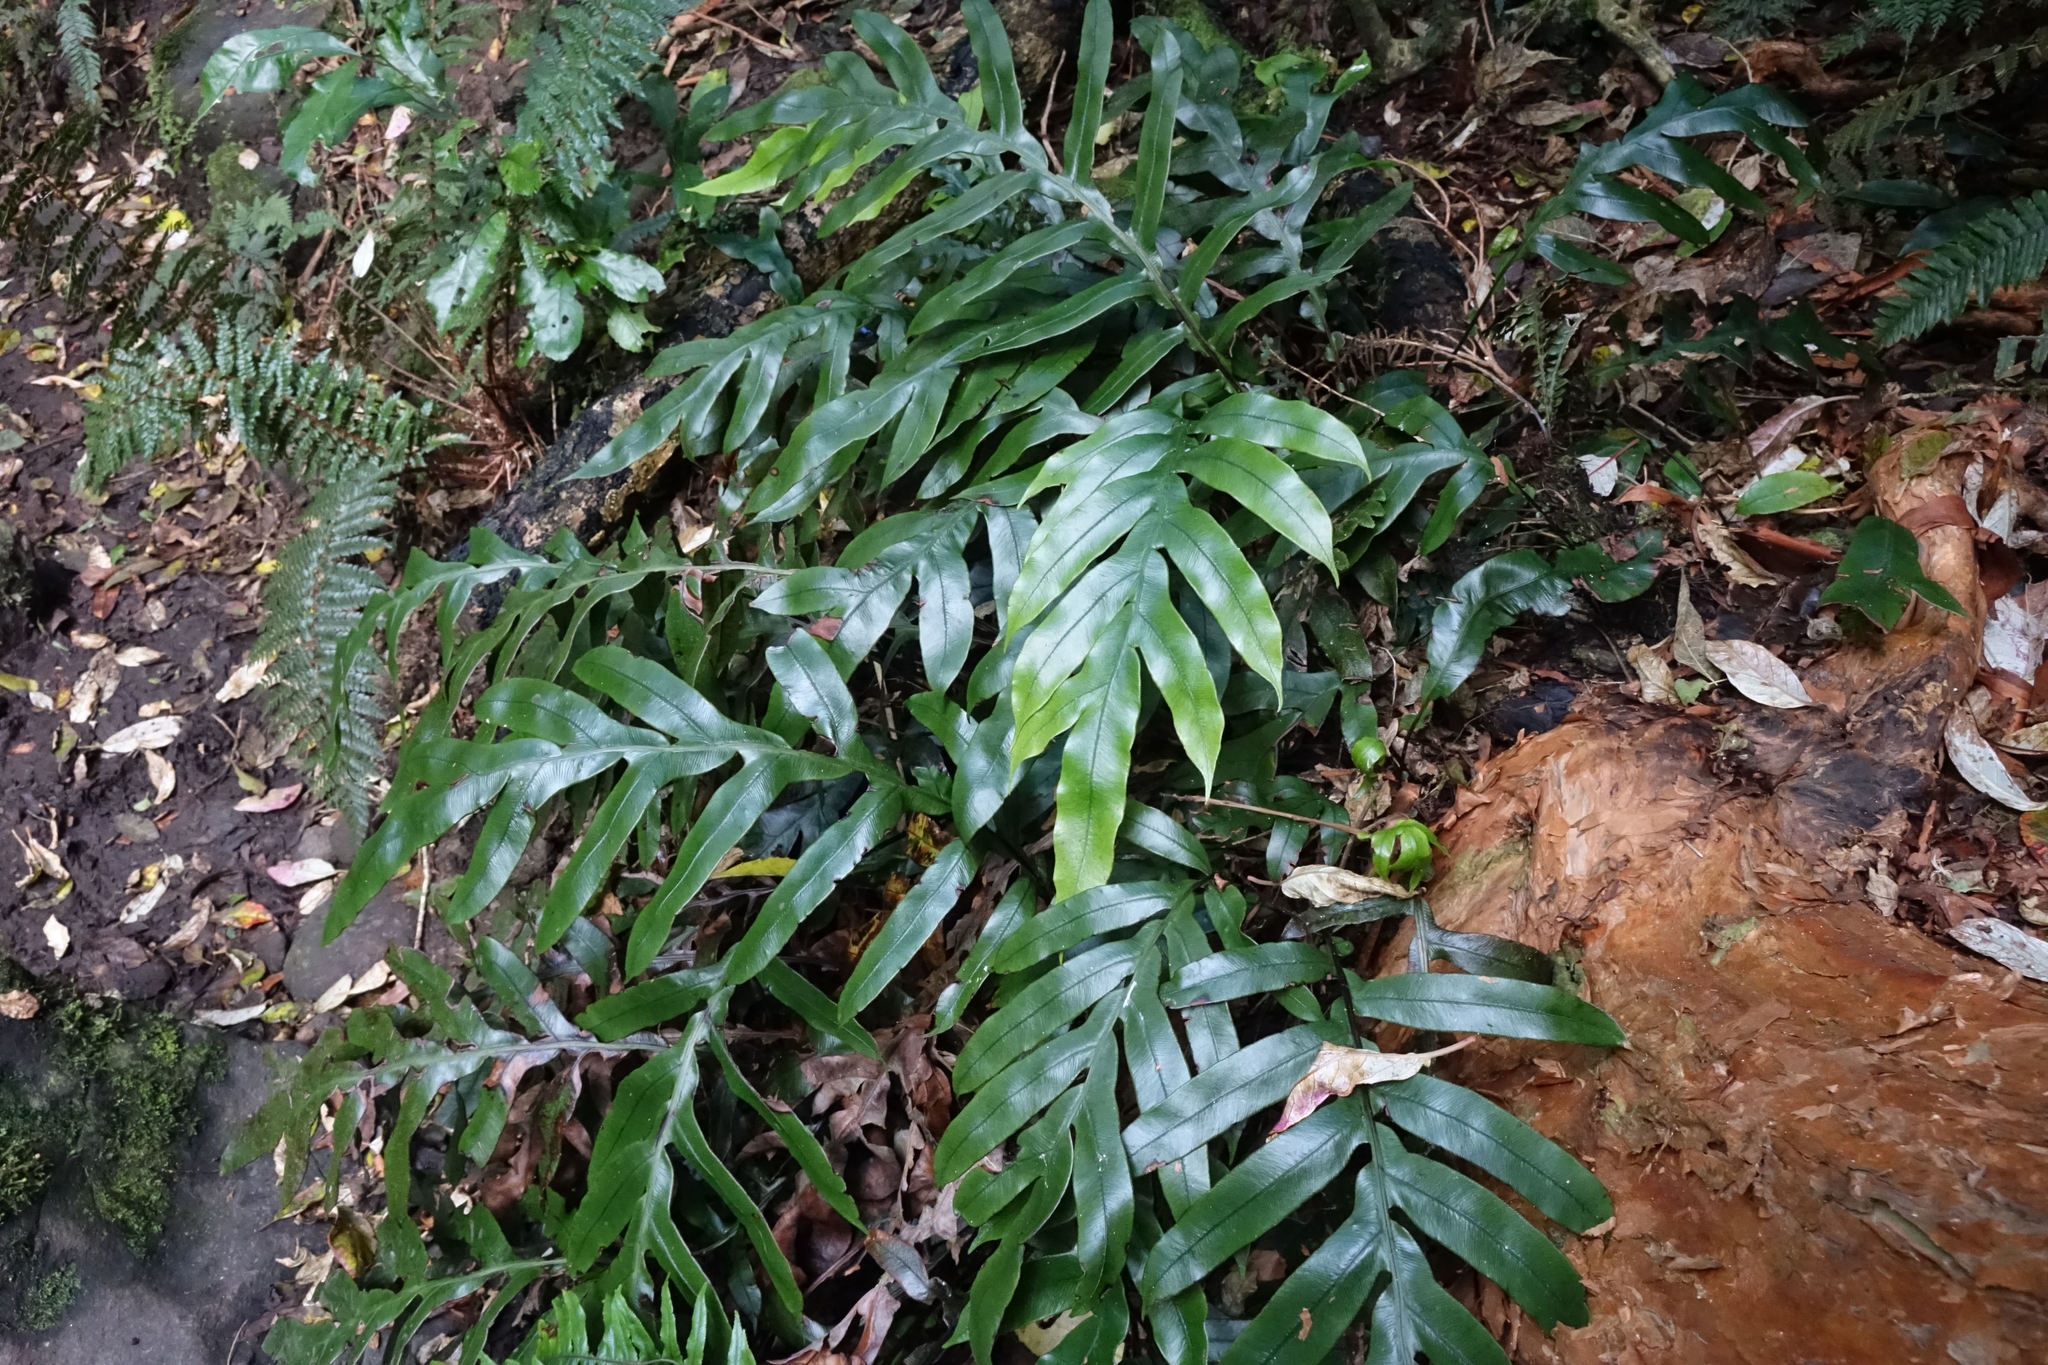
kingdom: Plantae
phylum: Tracheophyta
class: Polypodiopsida
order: Polypodiales
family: Blechnaceae
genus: Austroblechnum
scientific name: Austroblechnum colensoi
